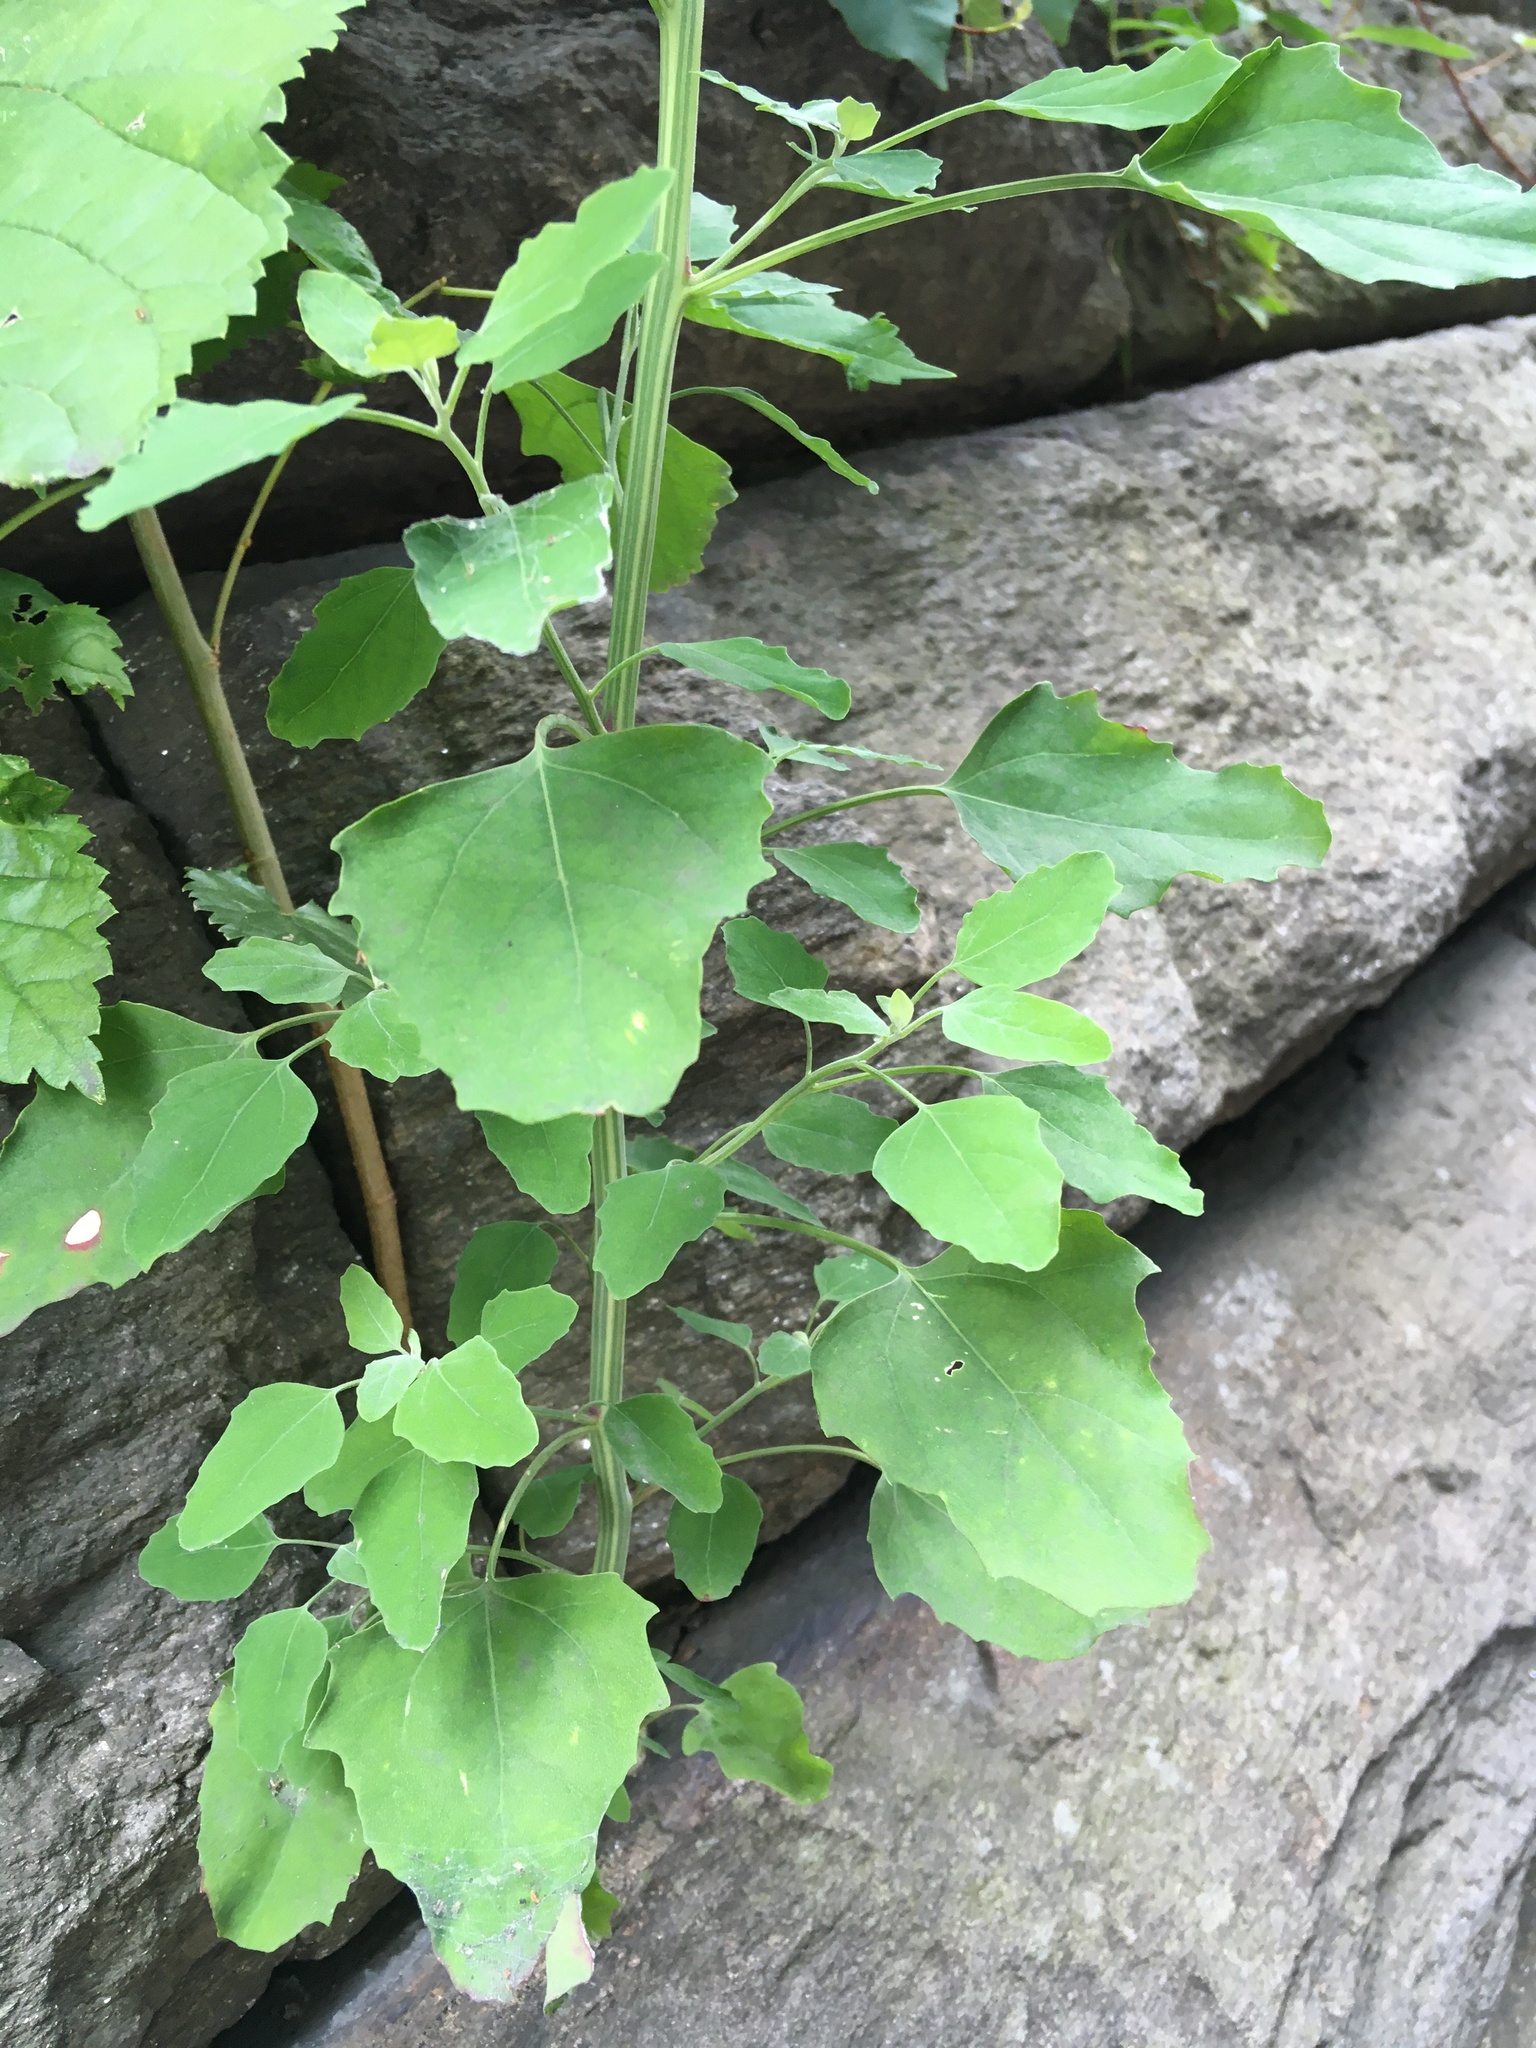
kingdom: Plantae
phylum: Tracheophyta
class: Magnoliopsida
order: Caryophyllales
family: Amaranthaceae
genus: Chenopodium
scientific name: Chenopodium album
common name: Fat-hen
